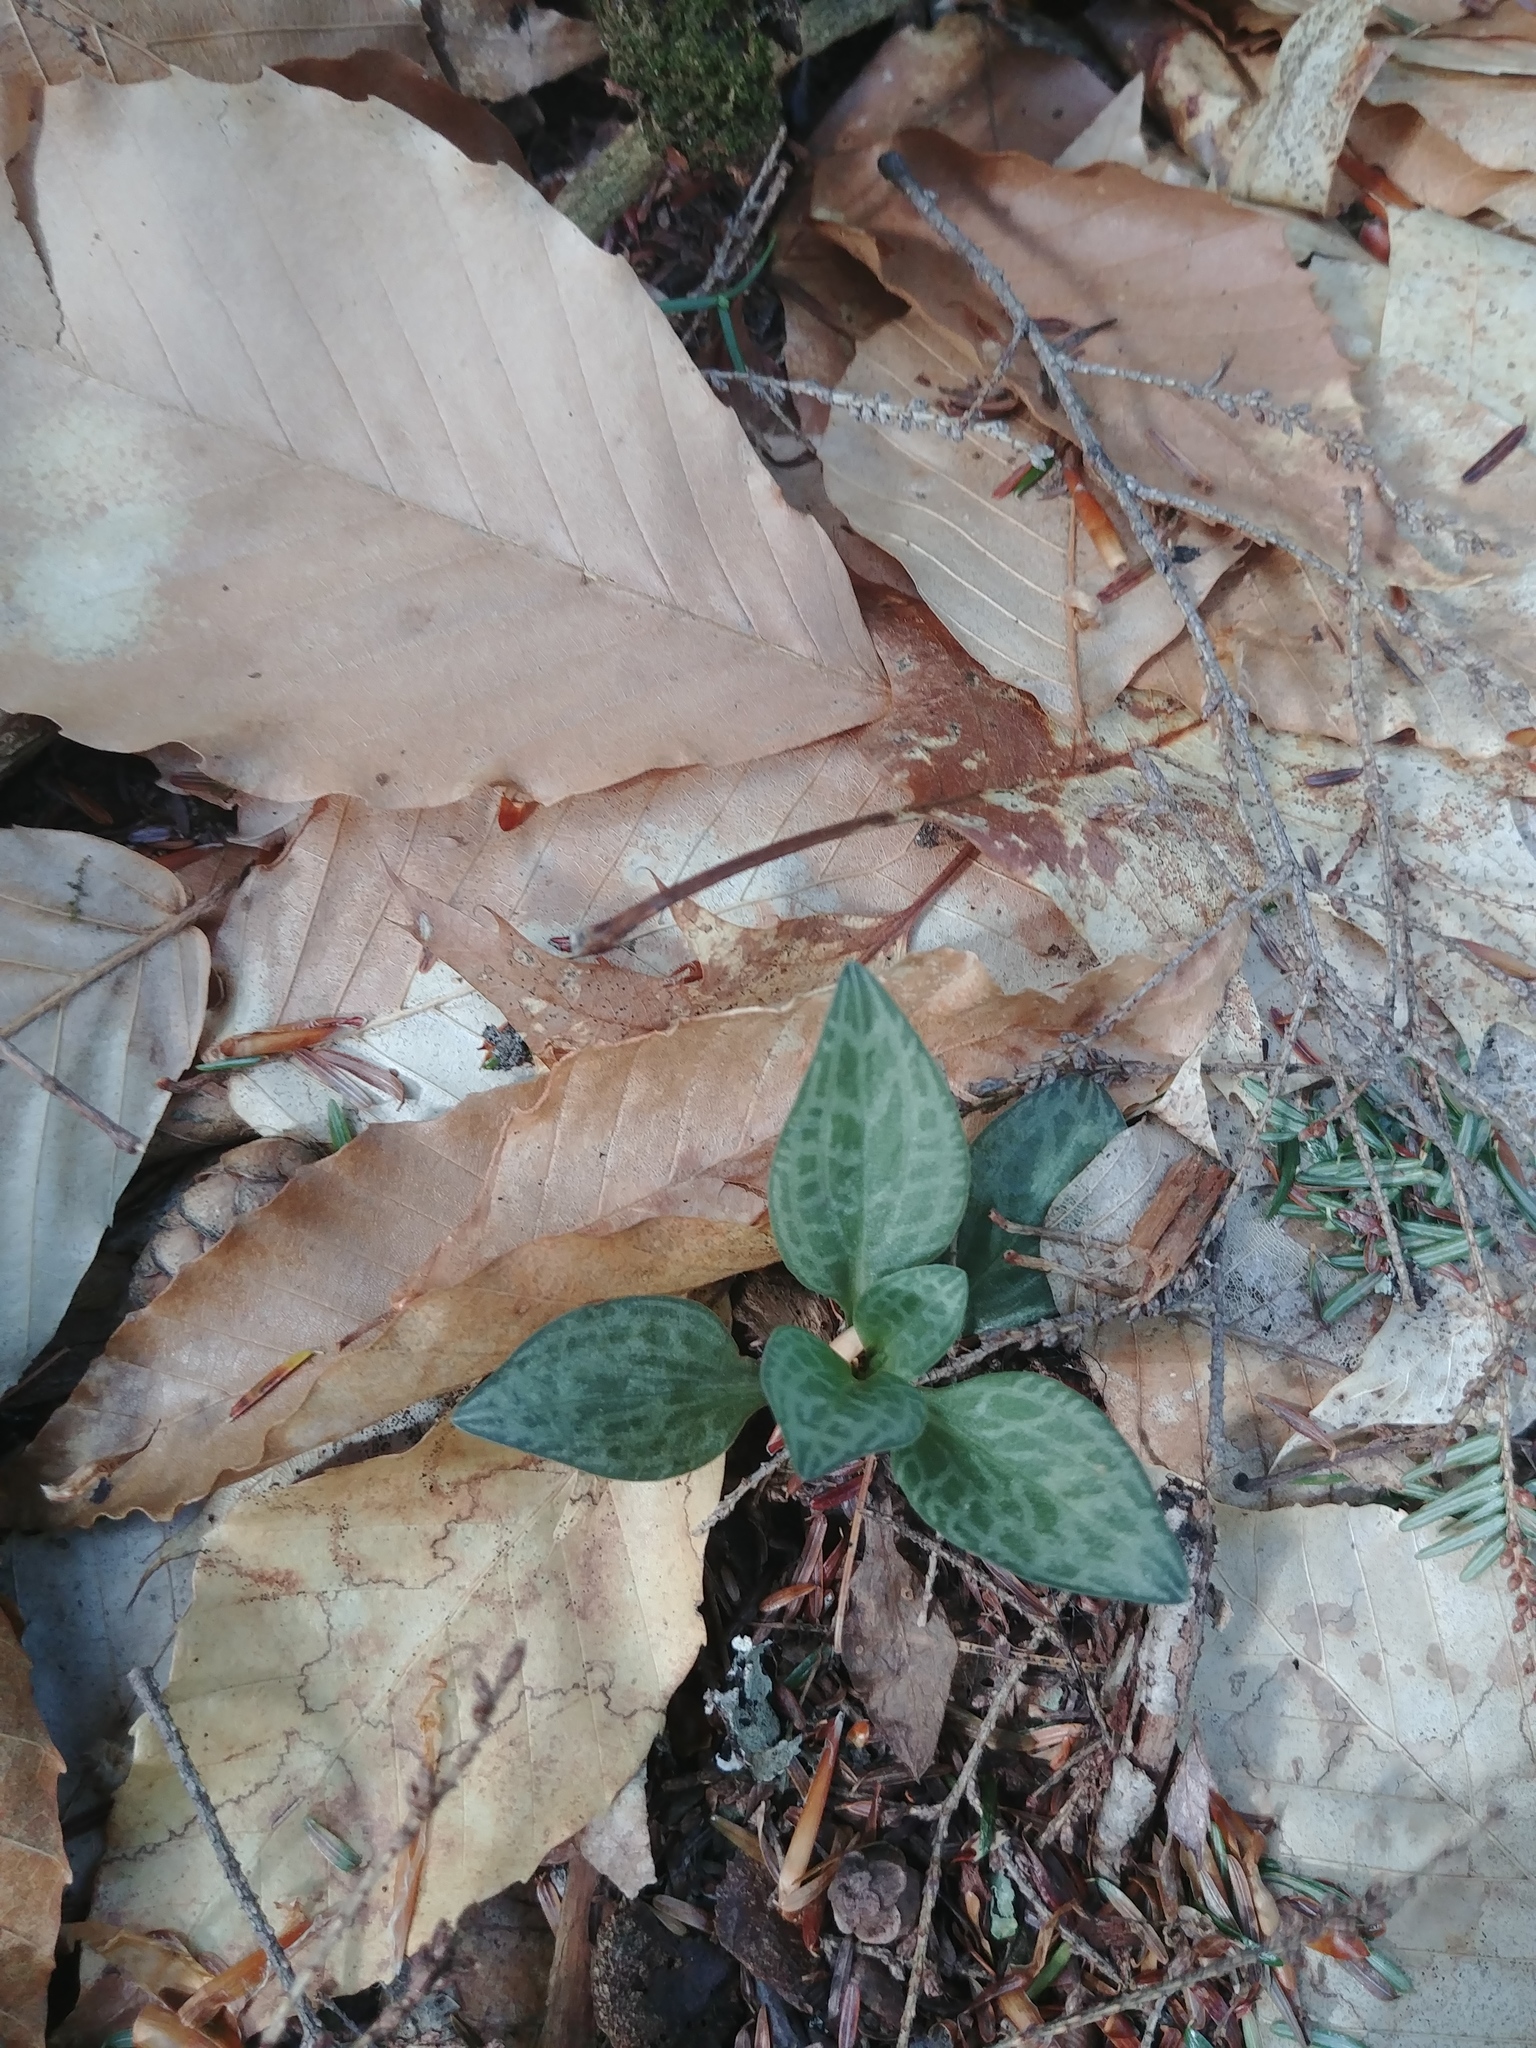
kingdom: Plantae
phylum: Tracheophyta
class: Liliopsida
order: Asparagales
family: Orchidaceae
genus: Goodyera
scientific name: Goodyera tesselata
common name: Checkered rattlesnake-plantain
